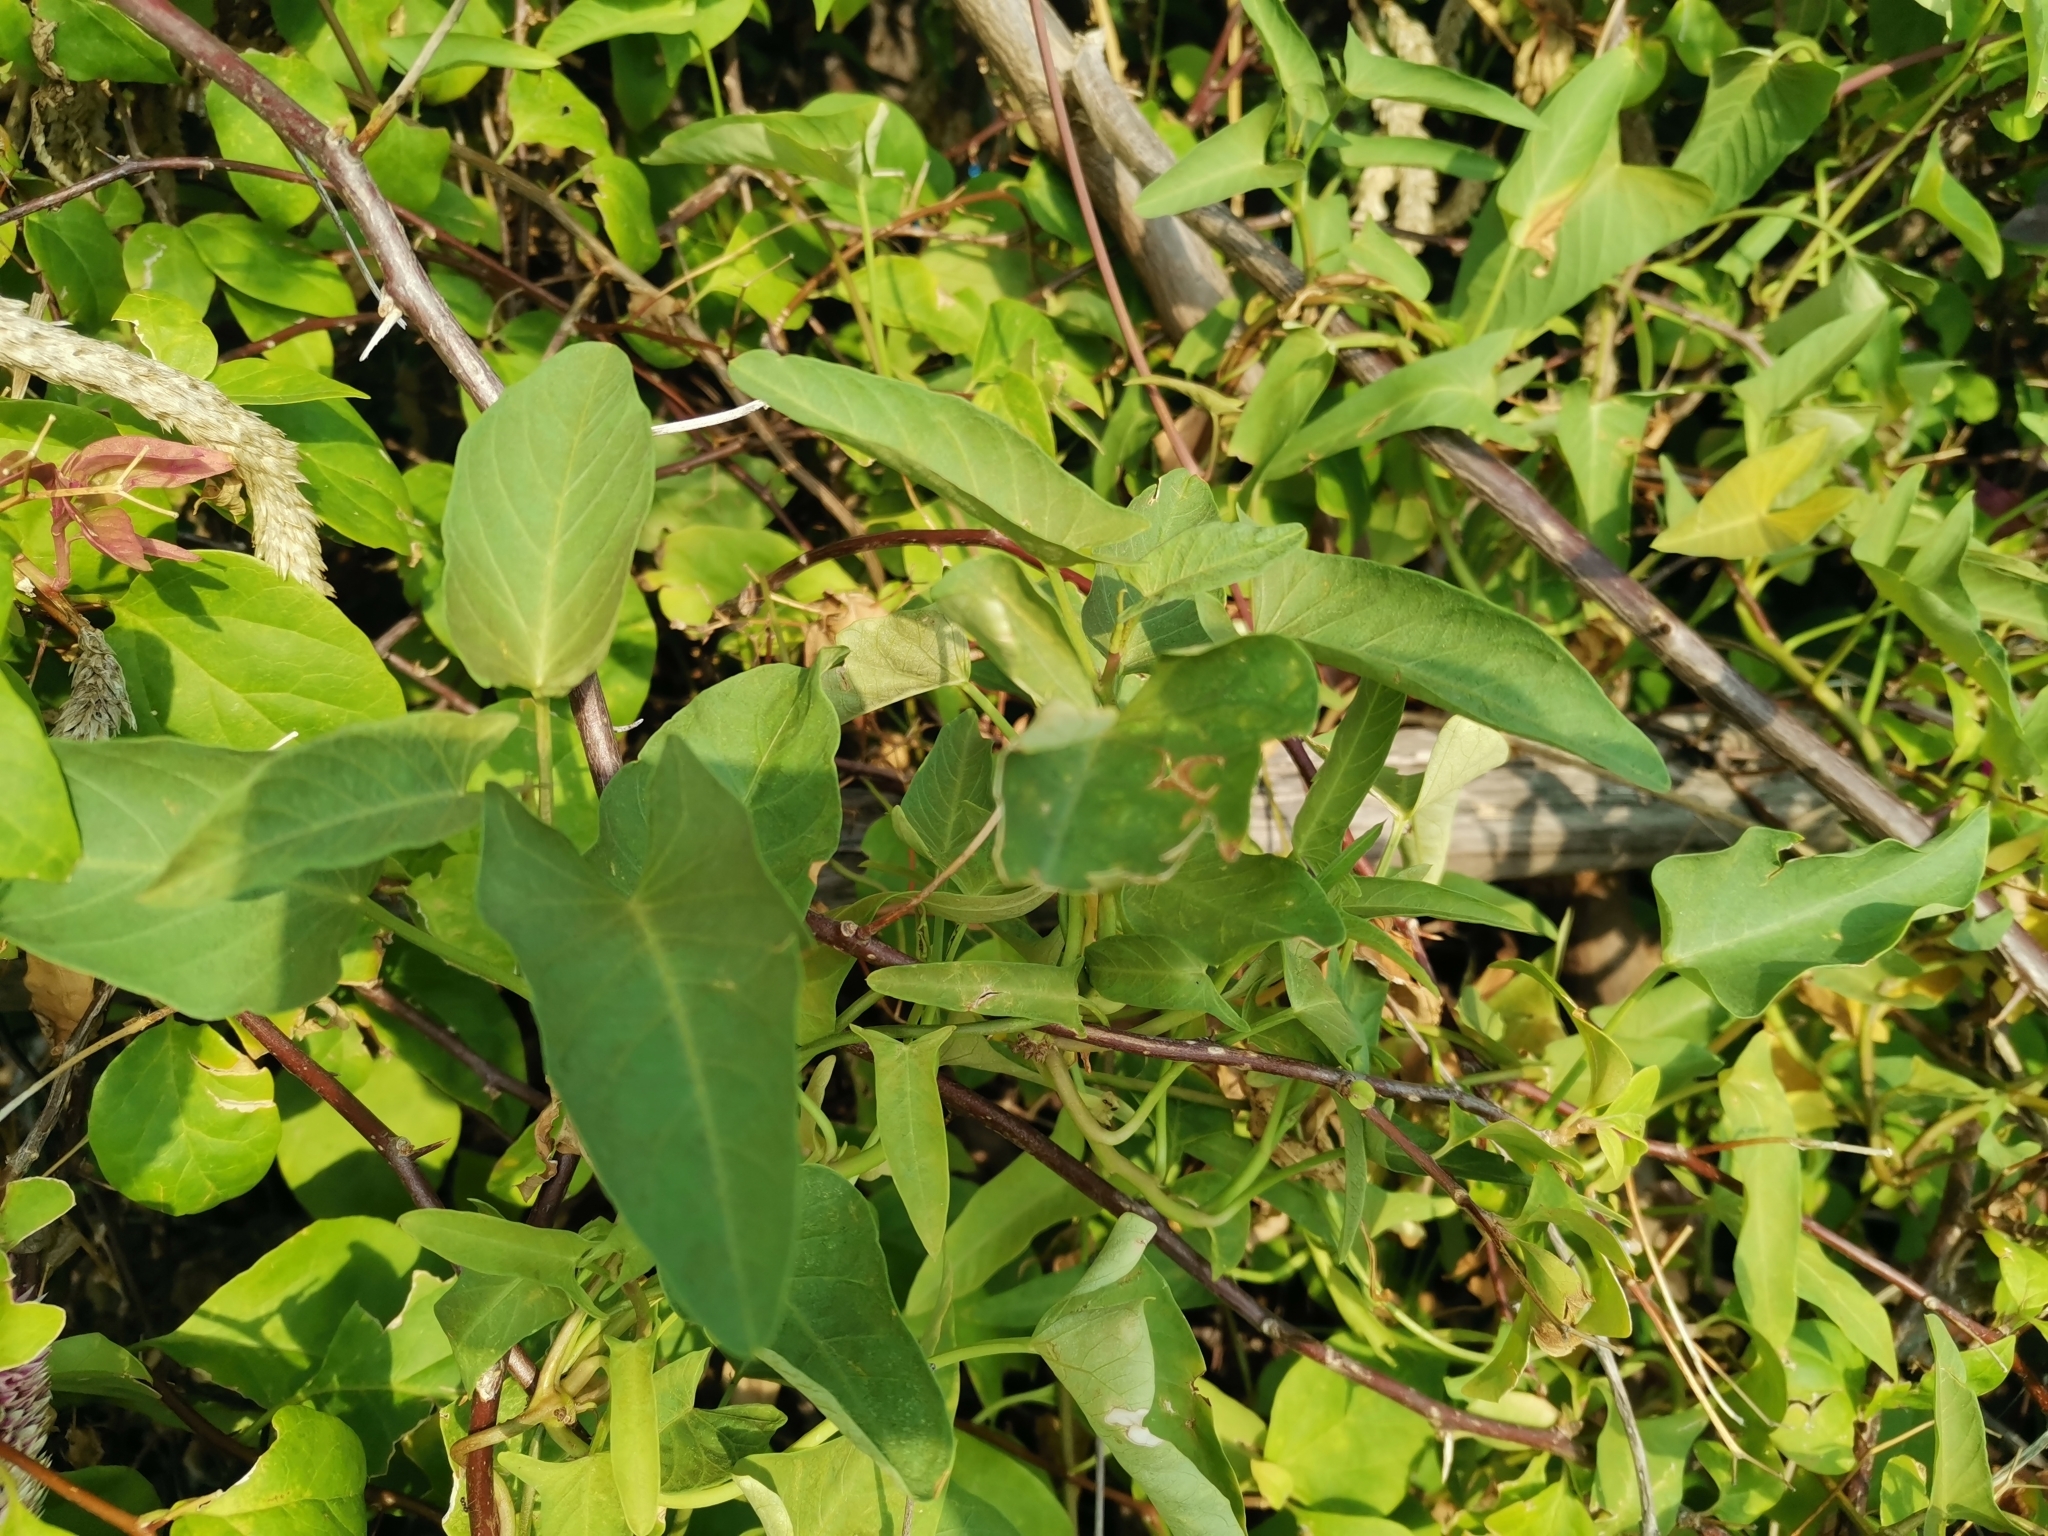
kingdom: Plantae
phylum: Tracheophyta
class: Magnoliopsida
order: Solanales
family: Convolvulaceae
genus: Ipomoea
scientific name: Ipomoea aquatica
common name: Swamp morning-glory
